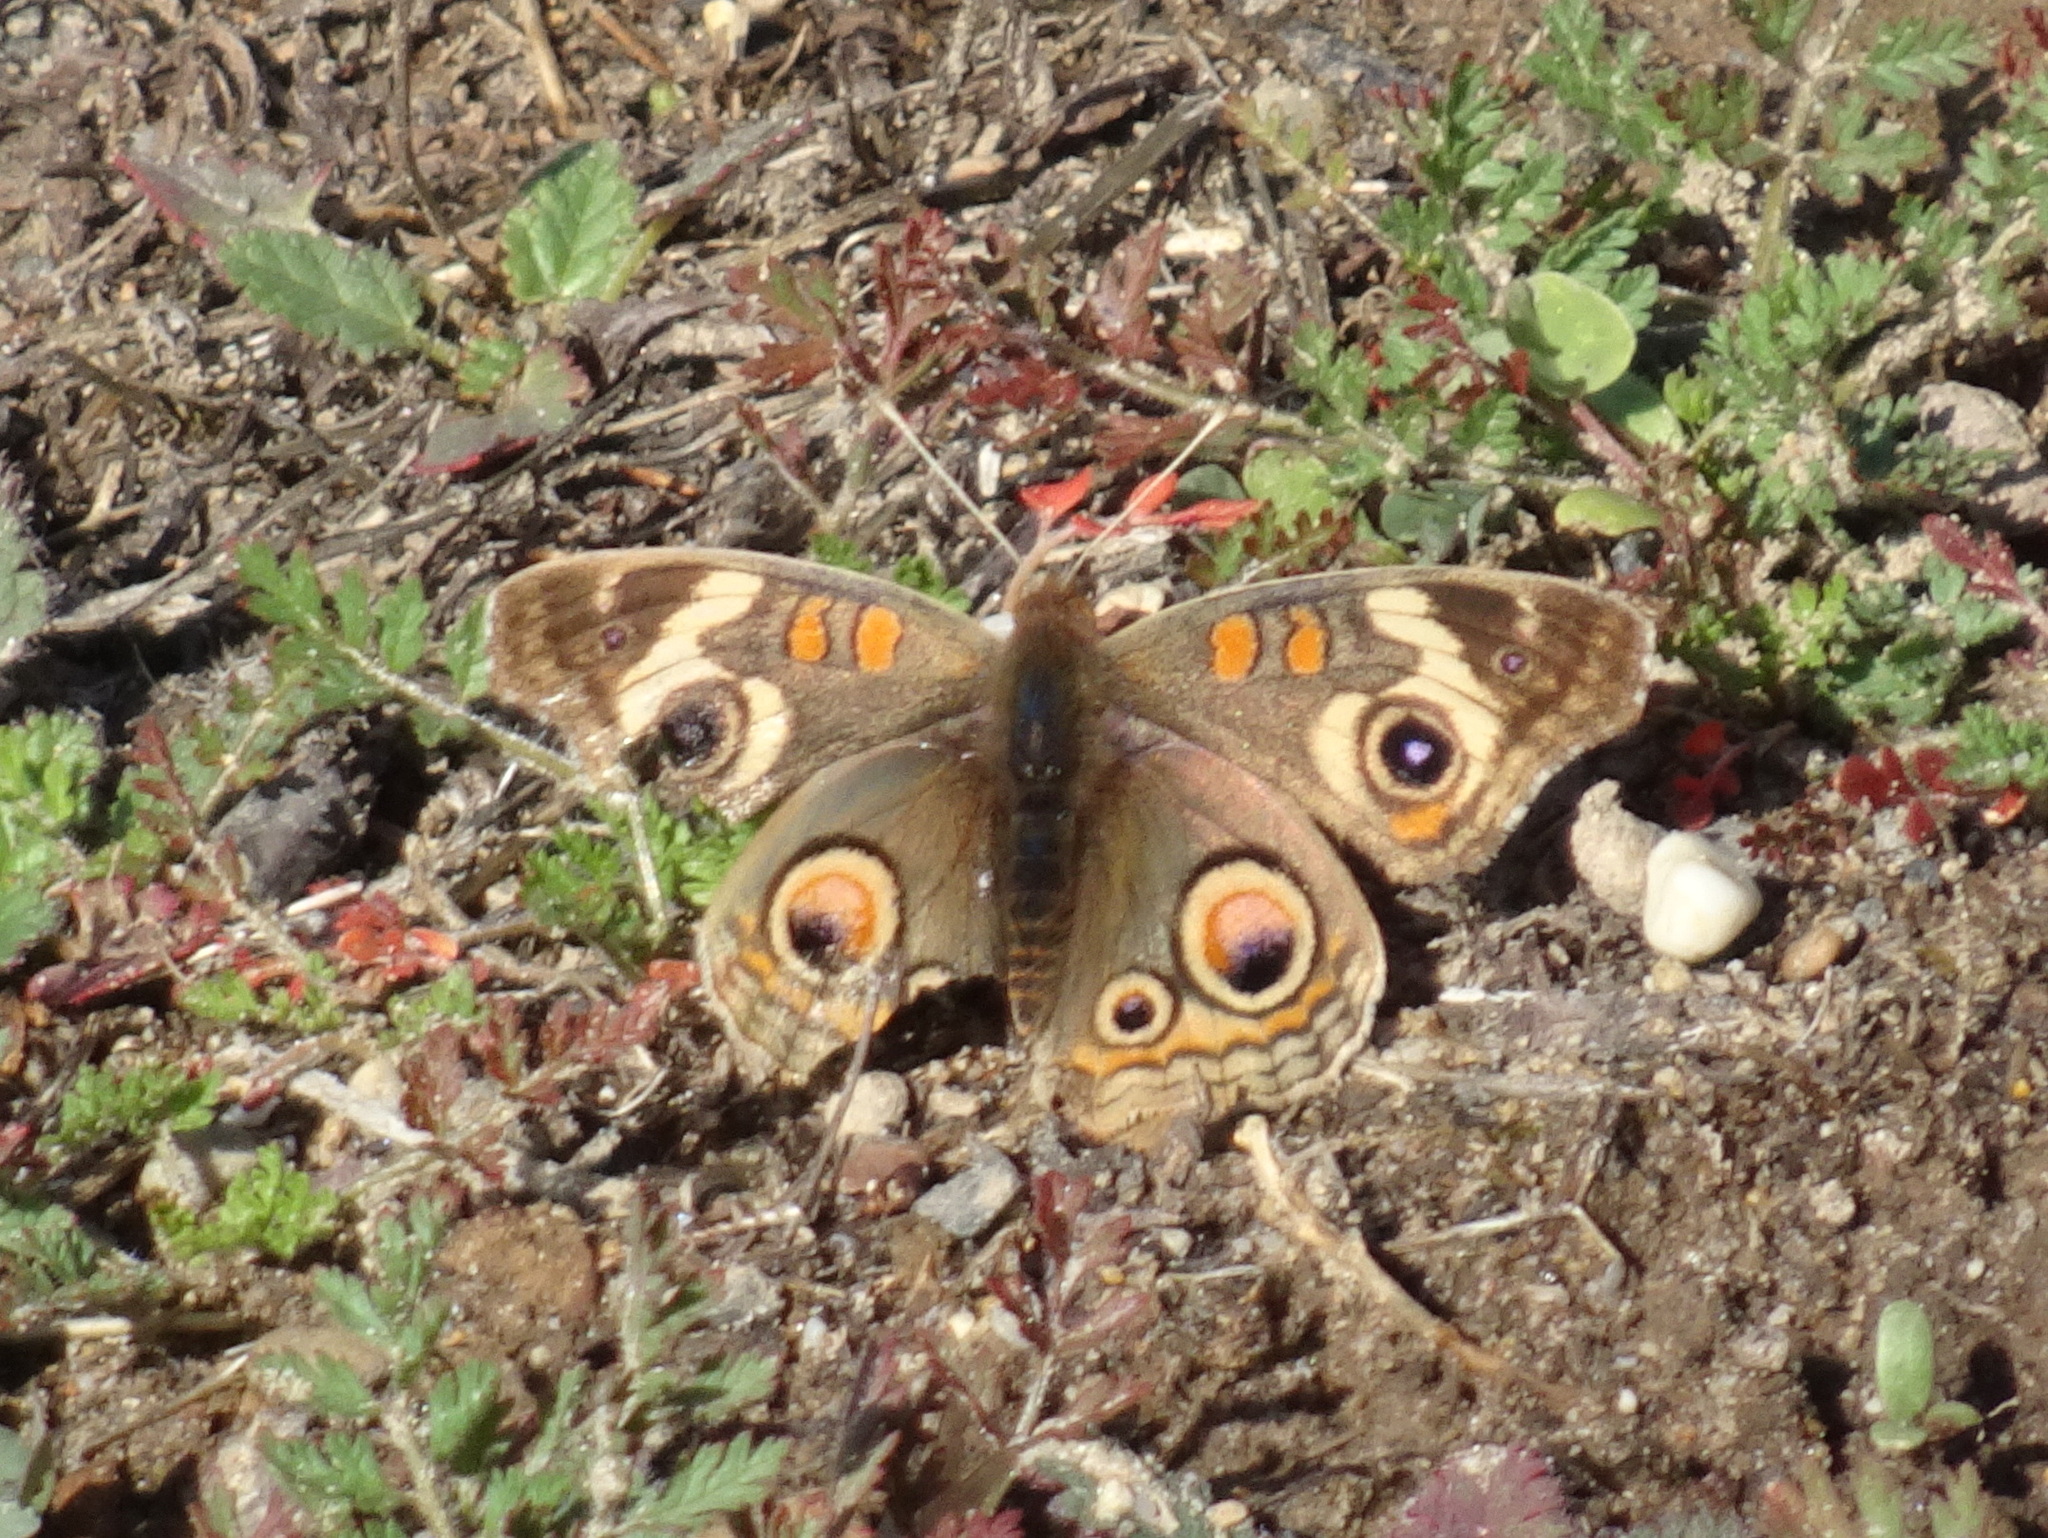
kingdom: Animalia
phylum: Arthropoda
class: Insecta
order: Lepidoptera
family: Nymphalidae
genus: Junonia
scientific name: Junonia grisea
